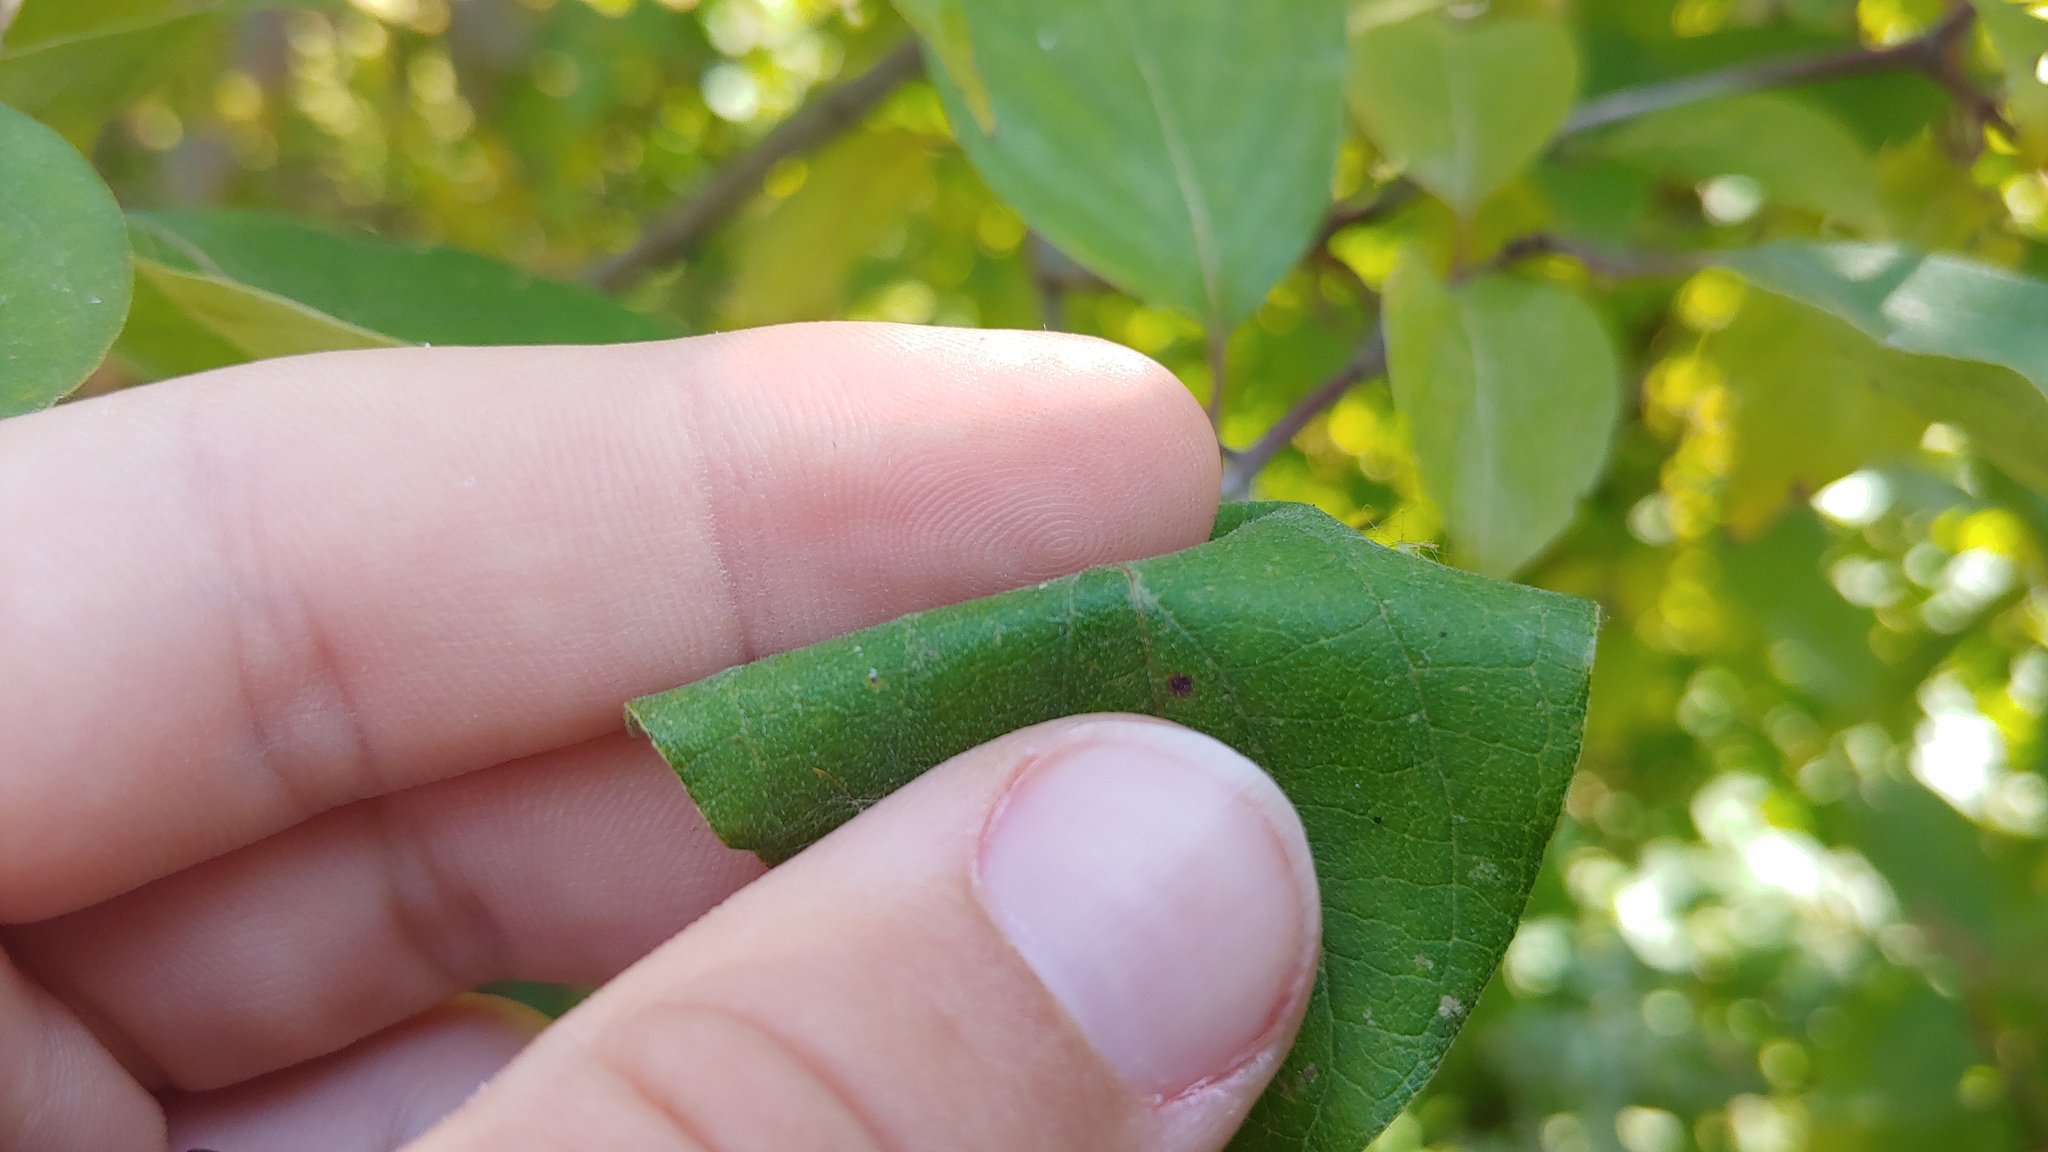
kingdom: Plantae
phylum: Tracheophyta
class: Magnoliopsida
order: Cornales
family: Cornaceae
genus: Cornus
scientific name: Cornus drummondii
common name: Rough-leaf dogwood
